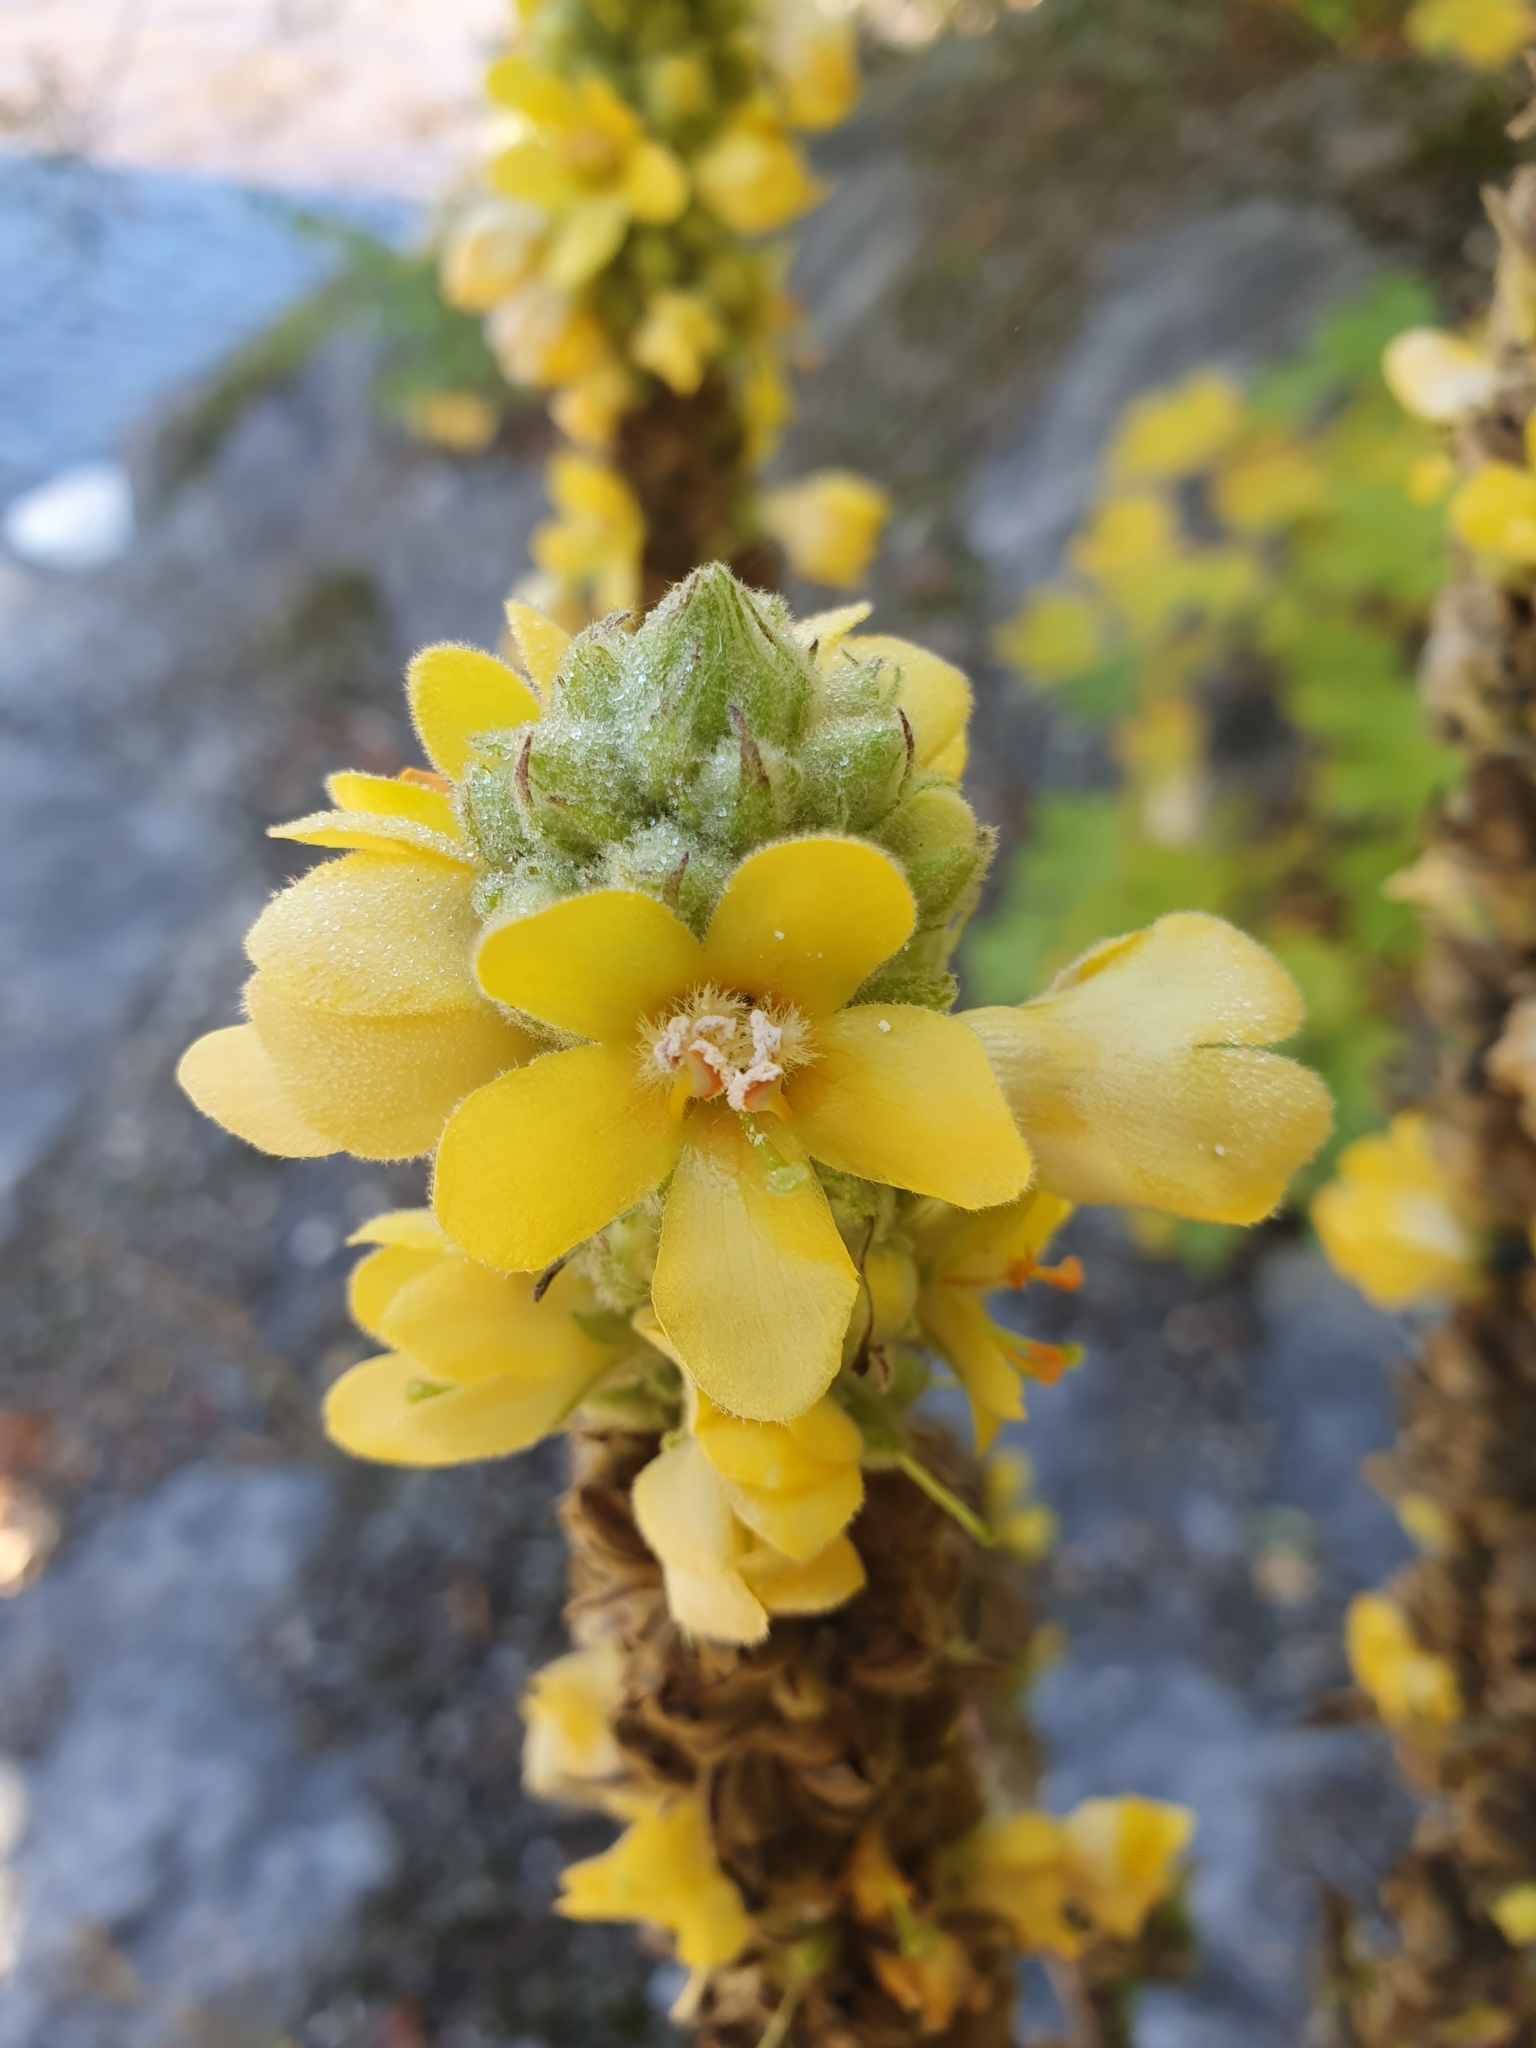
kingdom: Plantae
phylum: Tracheophyta
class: Magnoliopsida
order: Lamiales
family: Scrophulariaceae
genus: Verbascum
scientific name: Verbascum thapsus
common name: Common mullein
